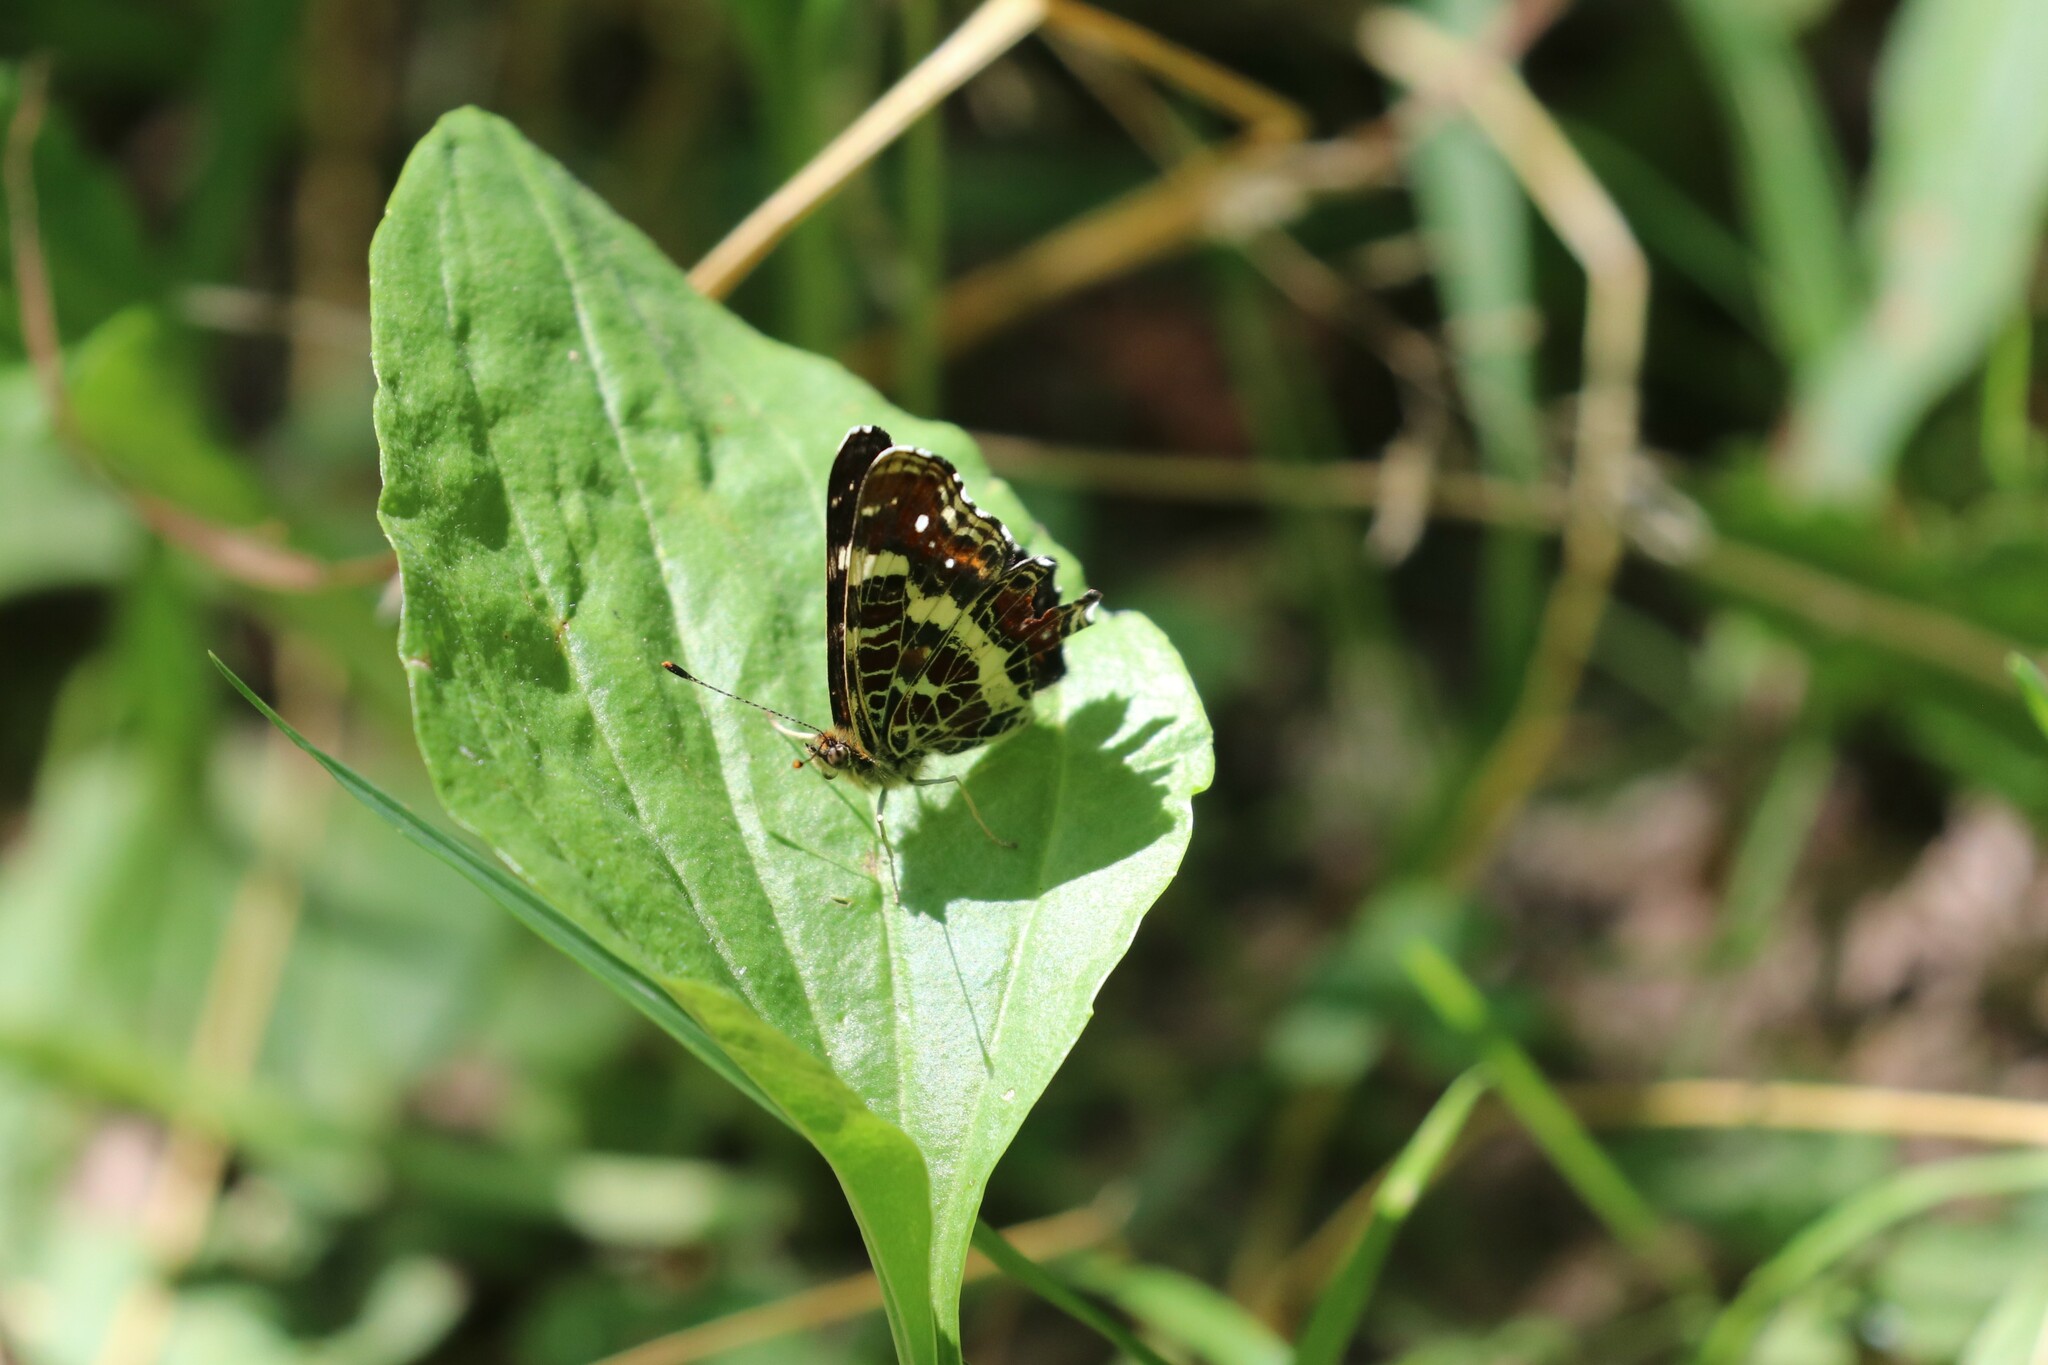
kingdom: Animalia
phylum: Arthropoda
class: Insecta
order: Lepidoptera
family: Nymphalidae
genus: Araschnia
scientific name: Araschnia levana
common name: Map butterfly
